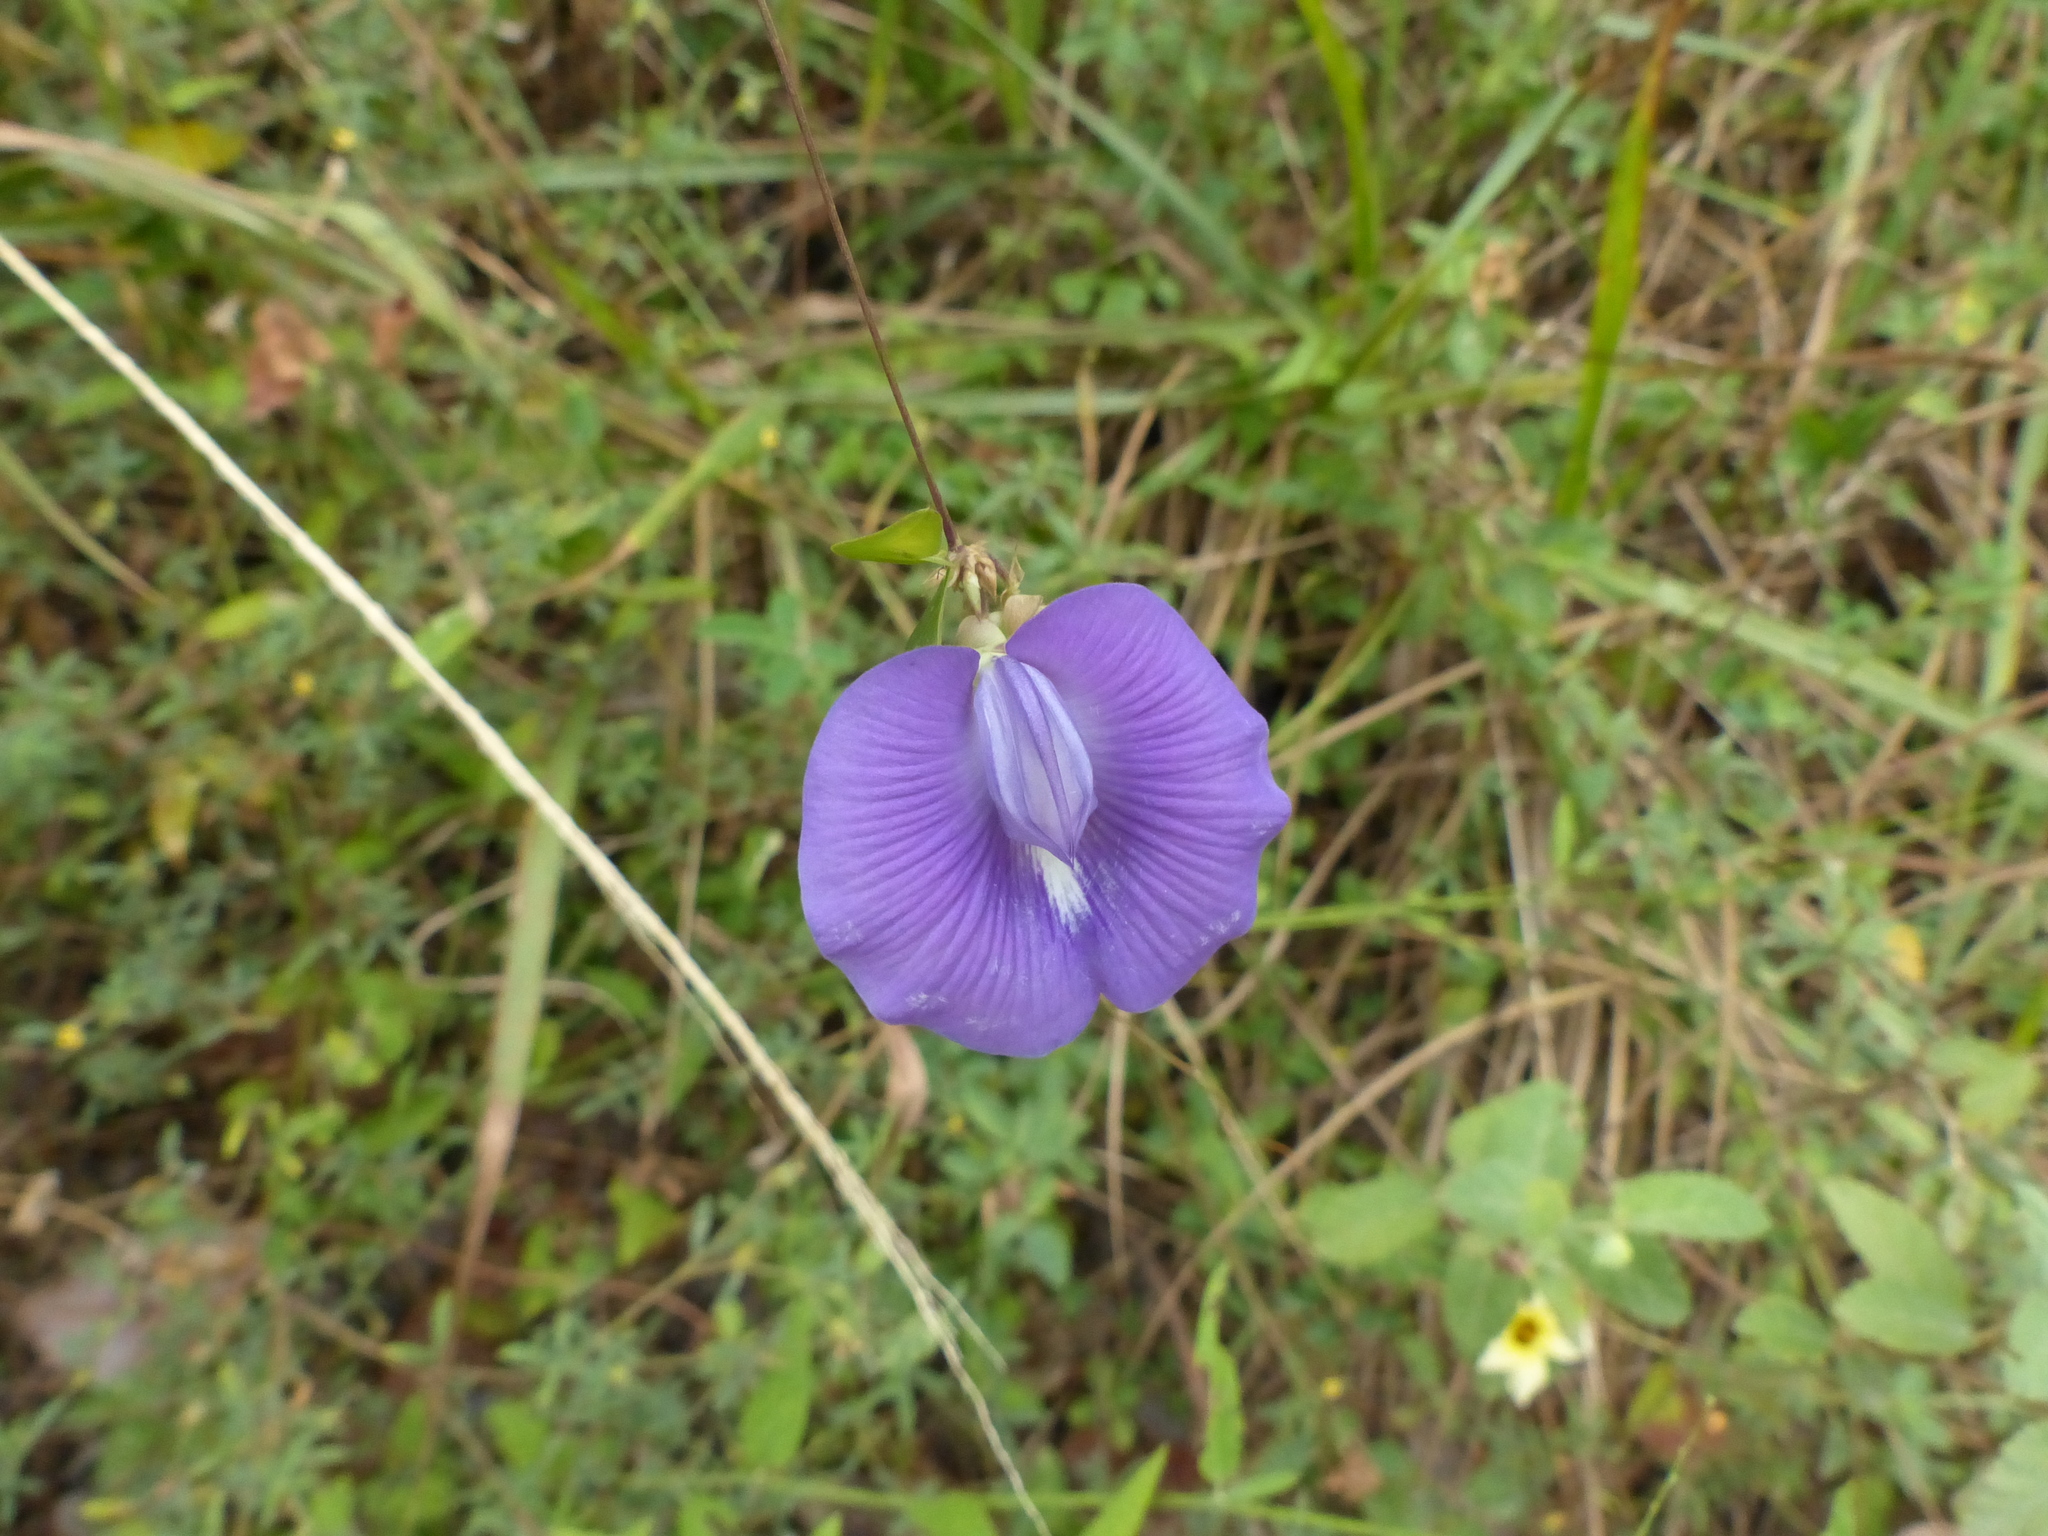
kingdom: Plantae
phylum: Tracheophyta
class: Magnoliopsida
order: Fabales
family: Fabaceae
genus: Centrosema
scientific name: Centrosema brasilianum
